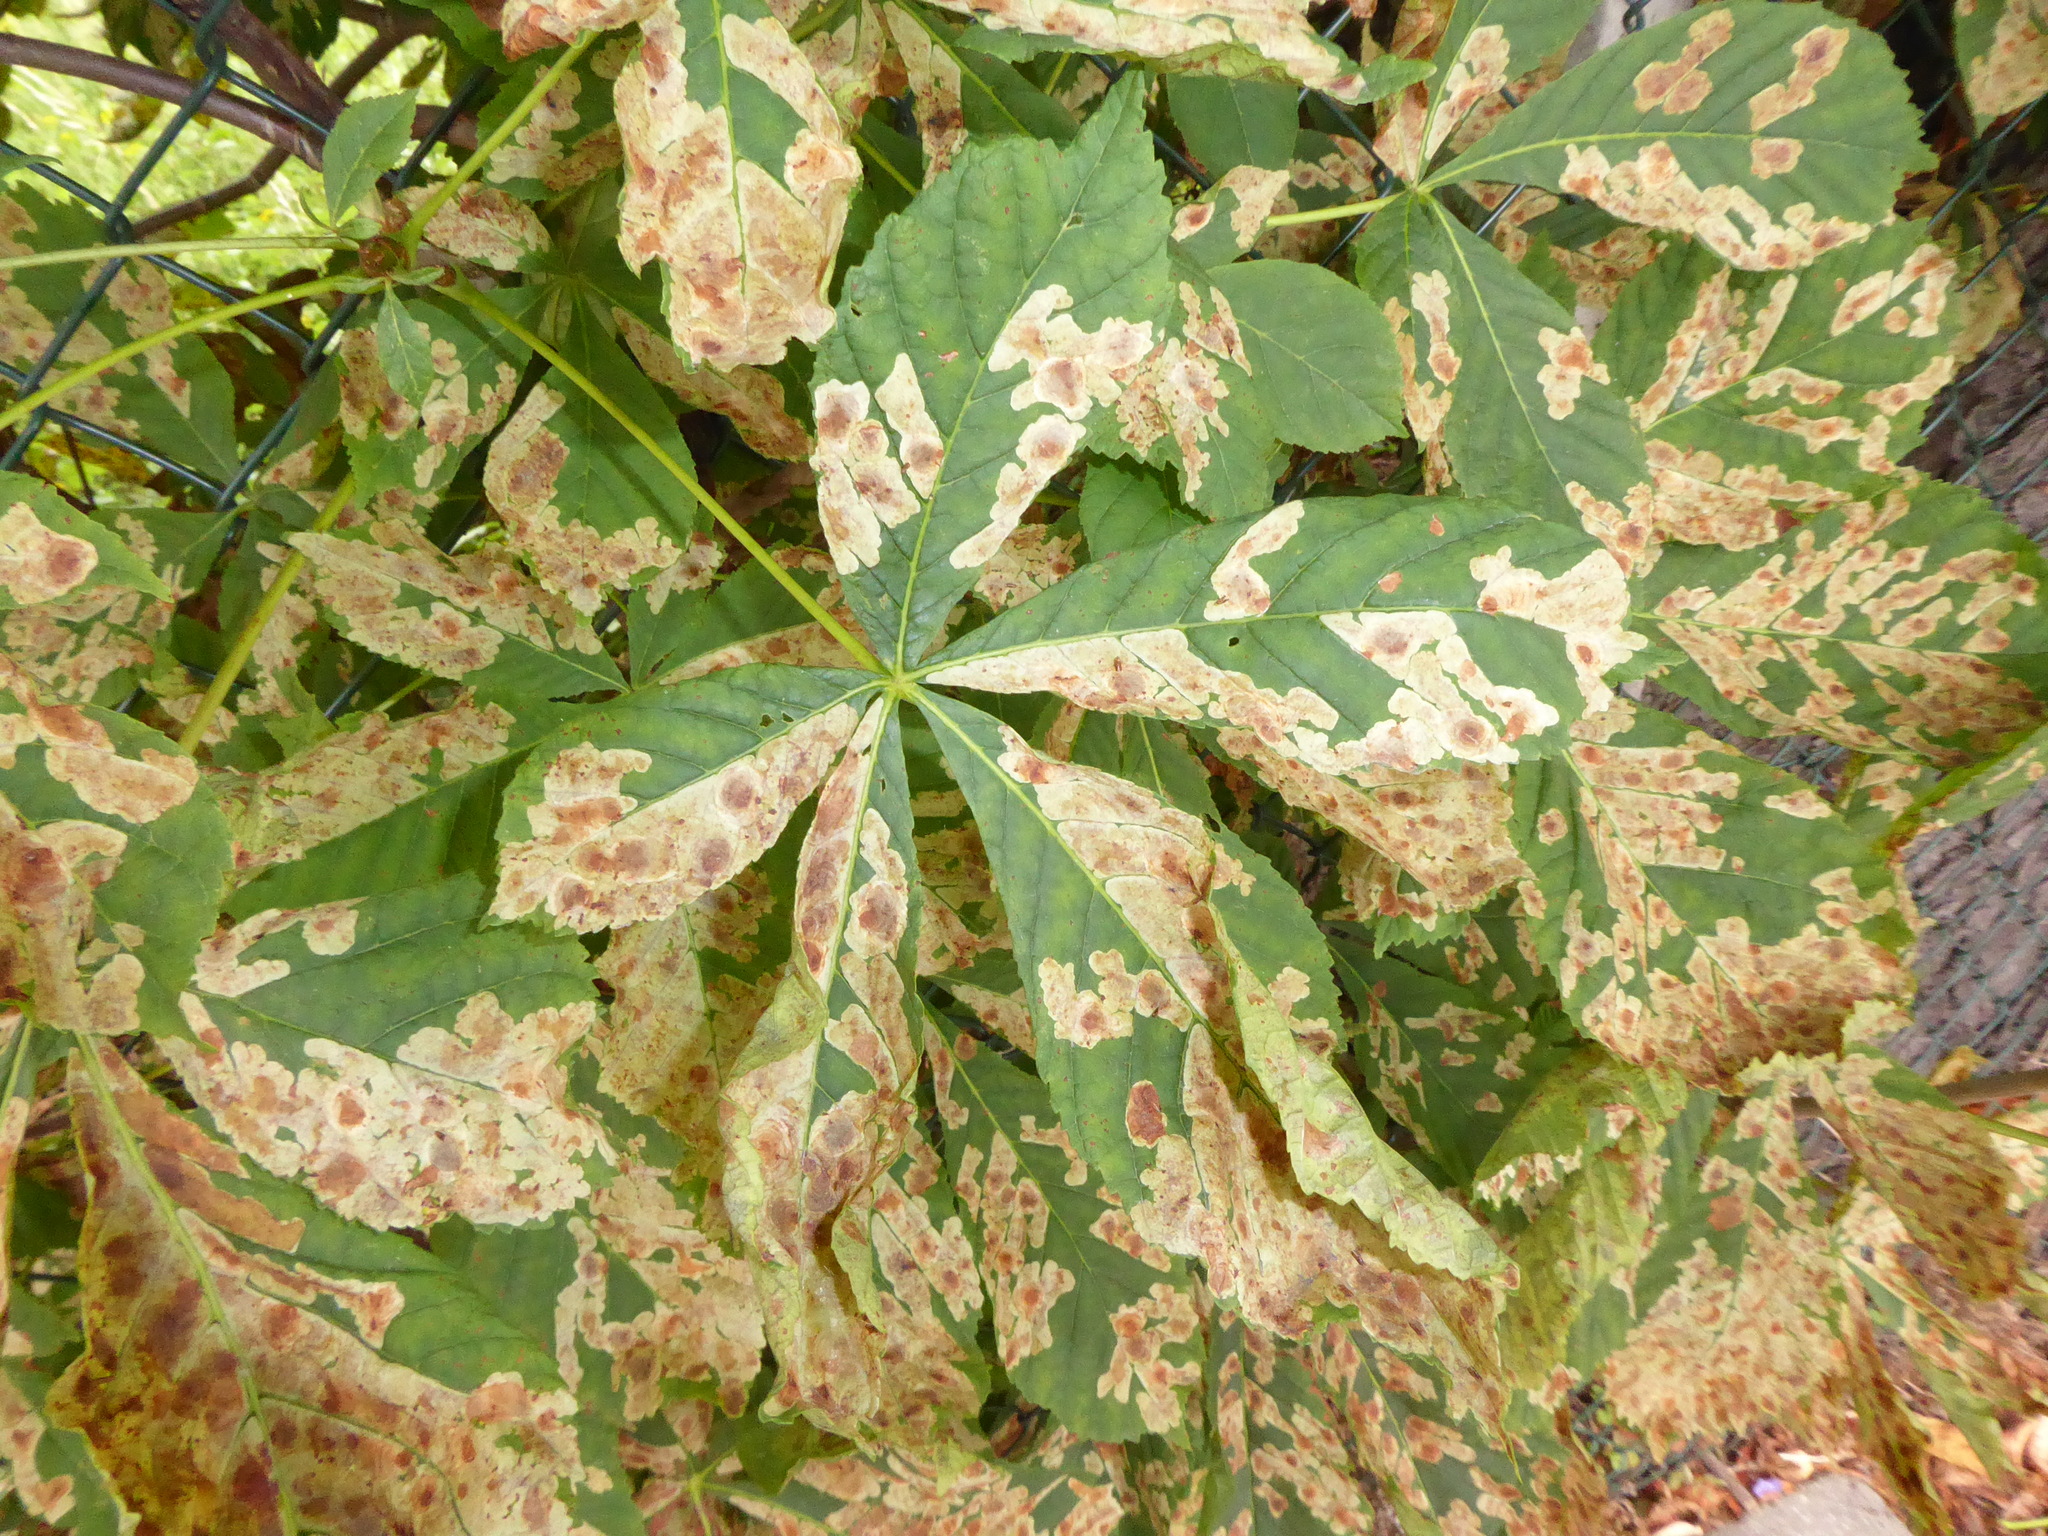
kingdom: Animalia
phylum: Arthropoda
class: Insecta
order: Lepidoptera
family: Gracillariidae
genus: Cameraria
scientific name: Cameraria ohridella
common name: Horse-chestnut leaf-miner
